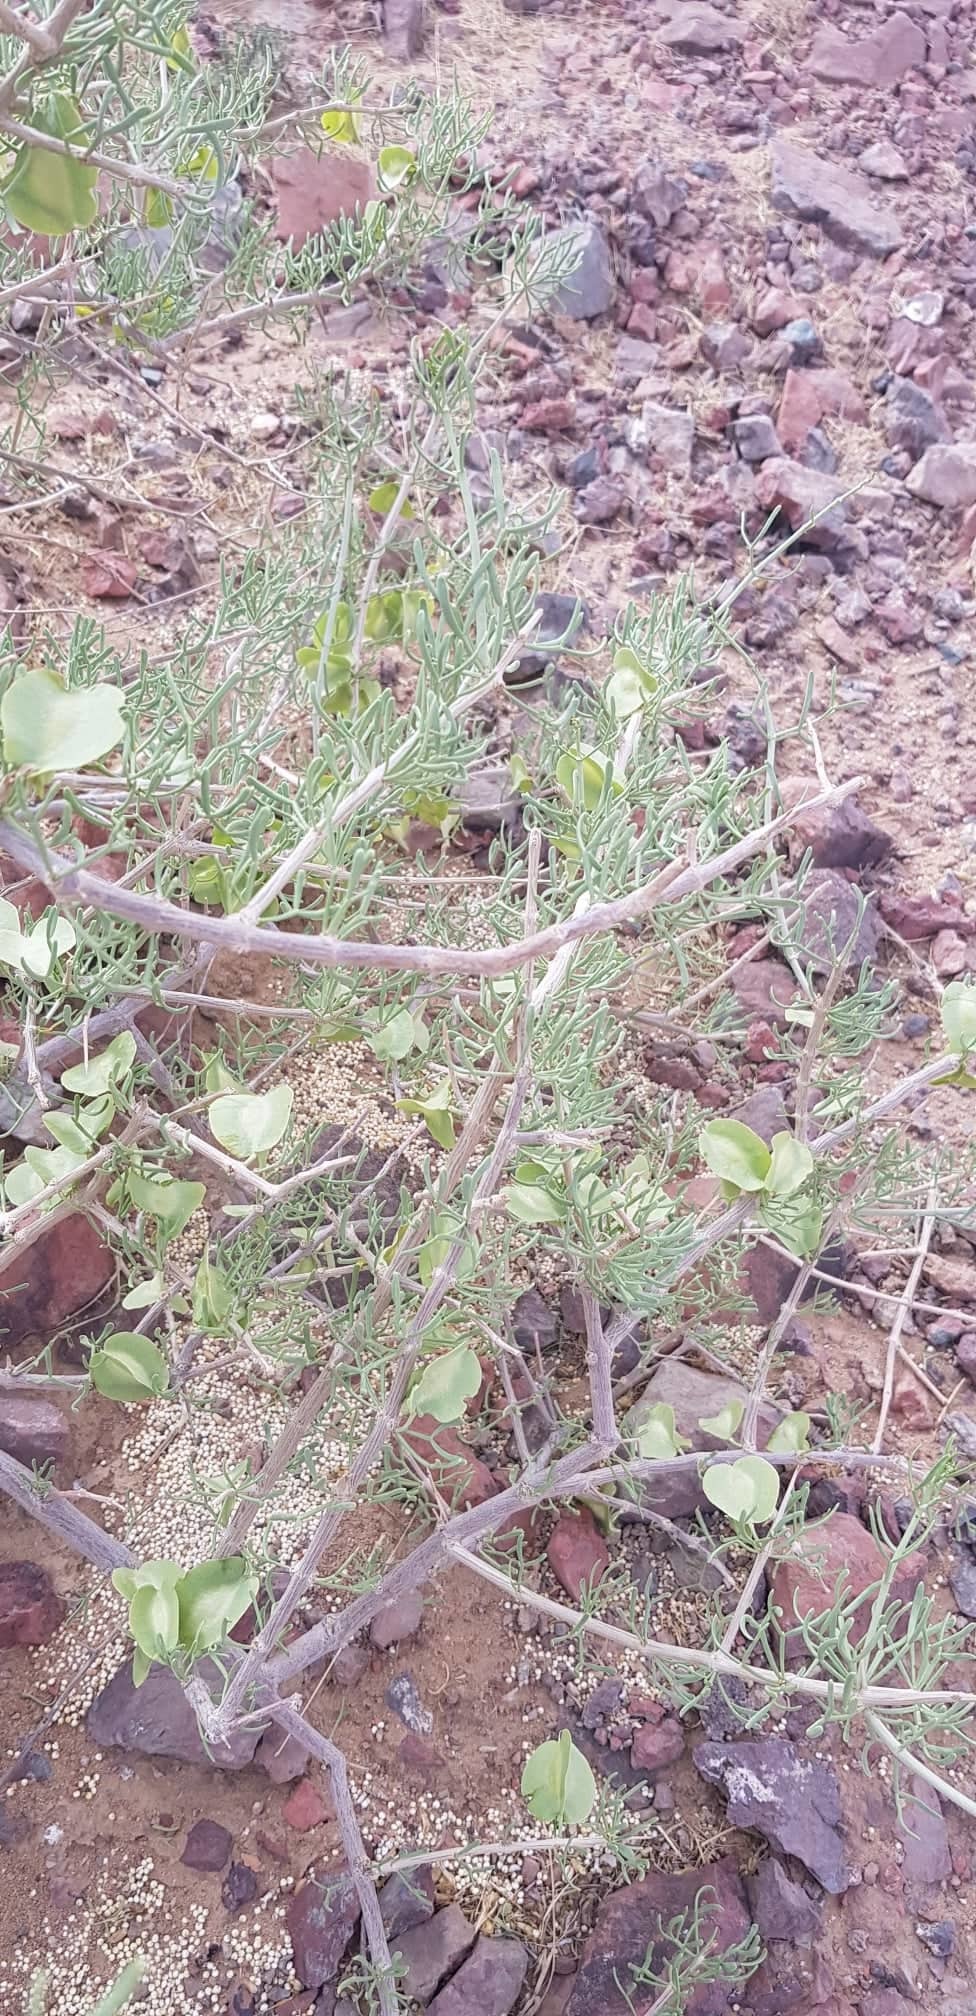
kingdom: Plantae
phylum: Tracheophyta
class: Magnoliopsida
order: Zygophyllales
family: Zygophyllaceae
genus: Zygophyllum
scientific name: Zygophyllum xanthoxylum
